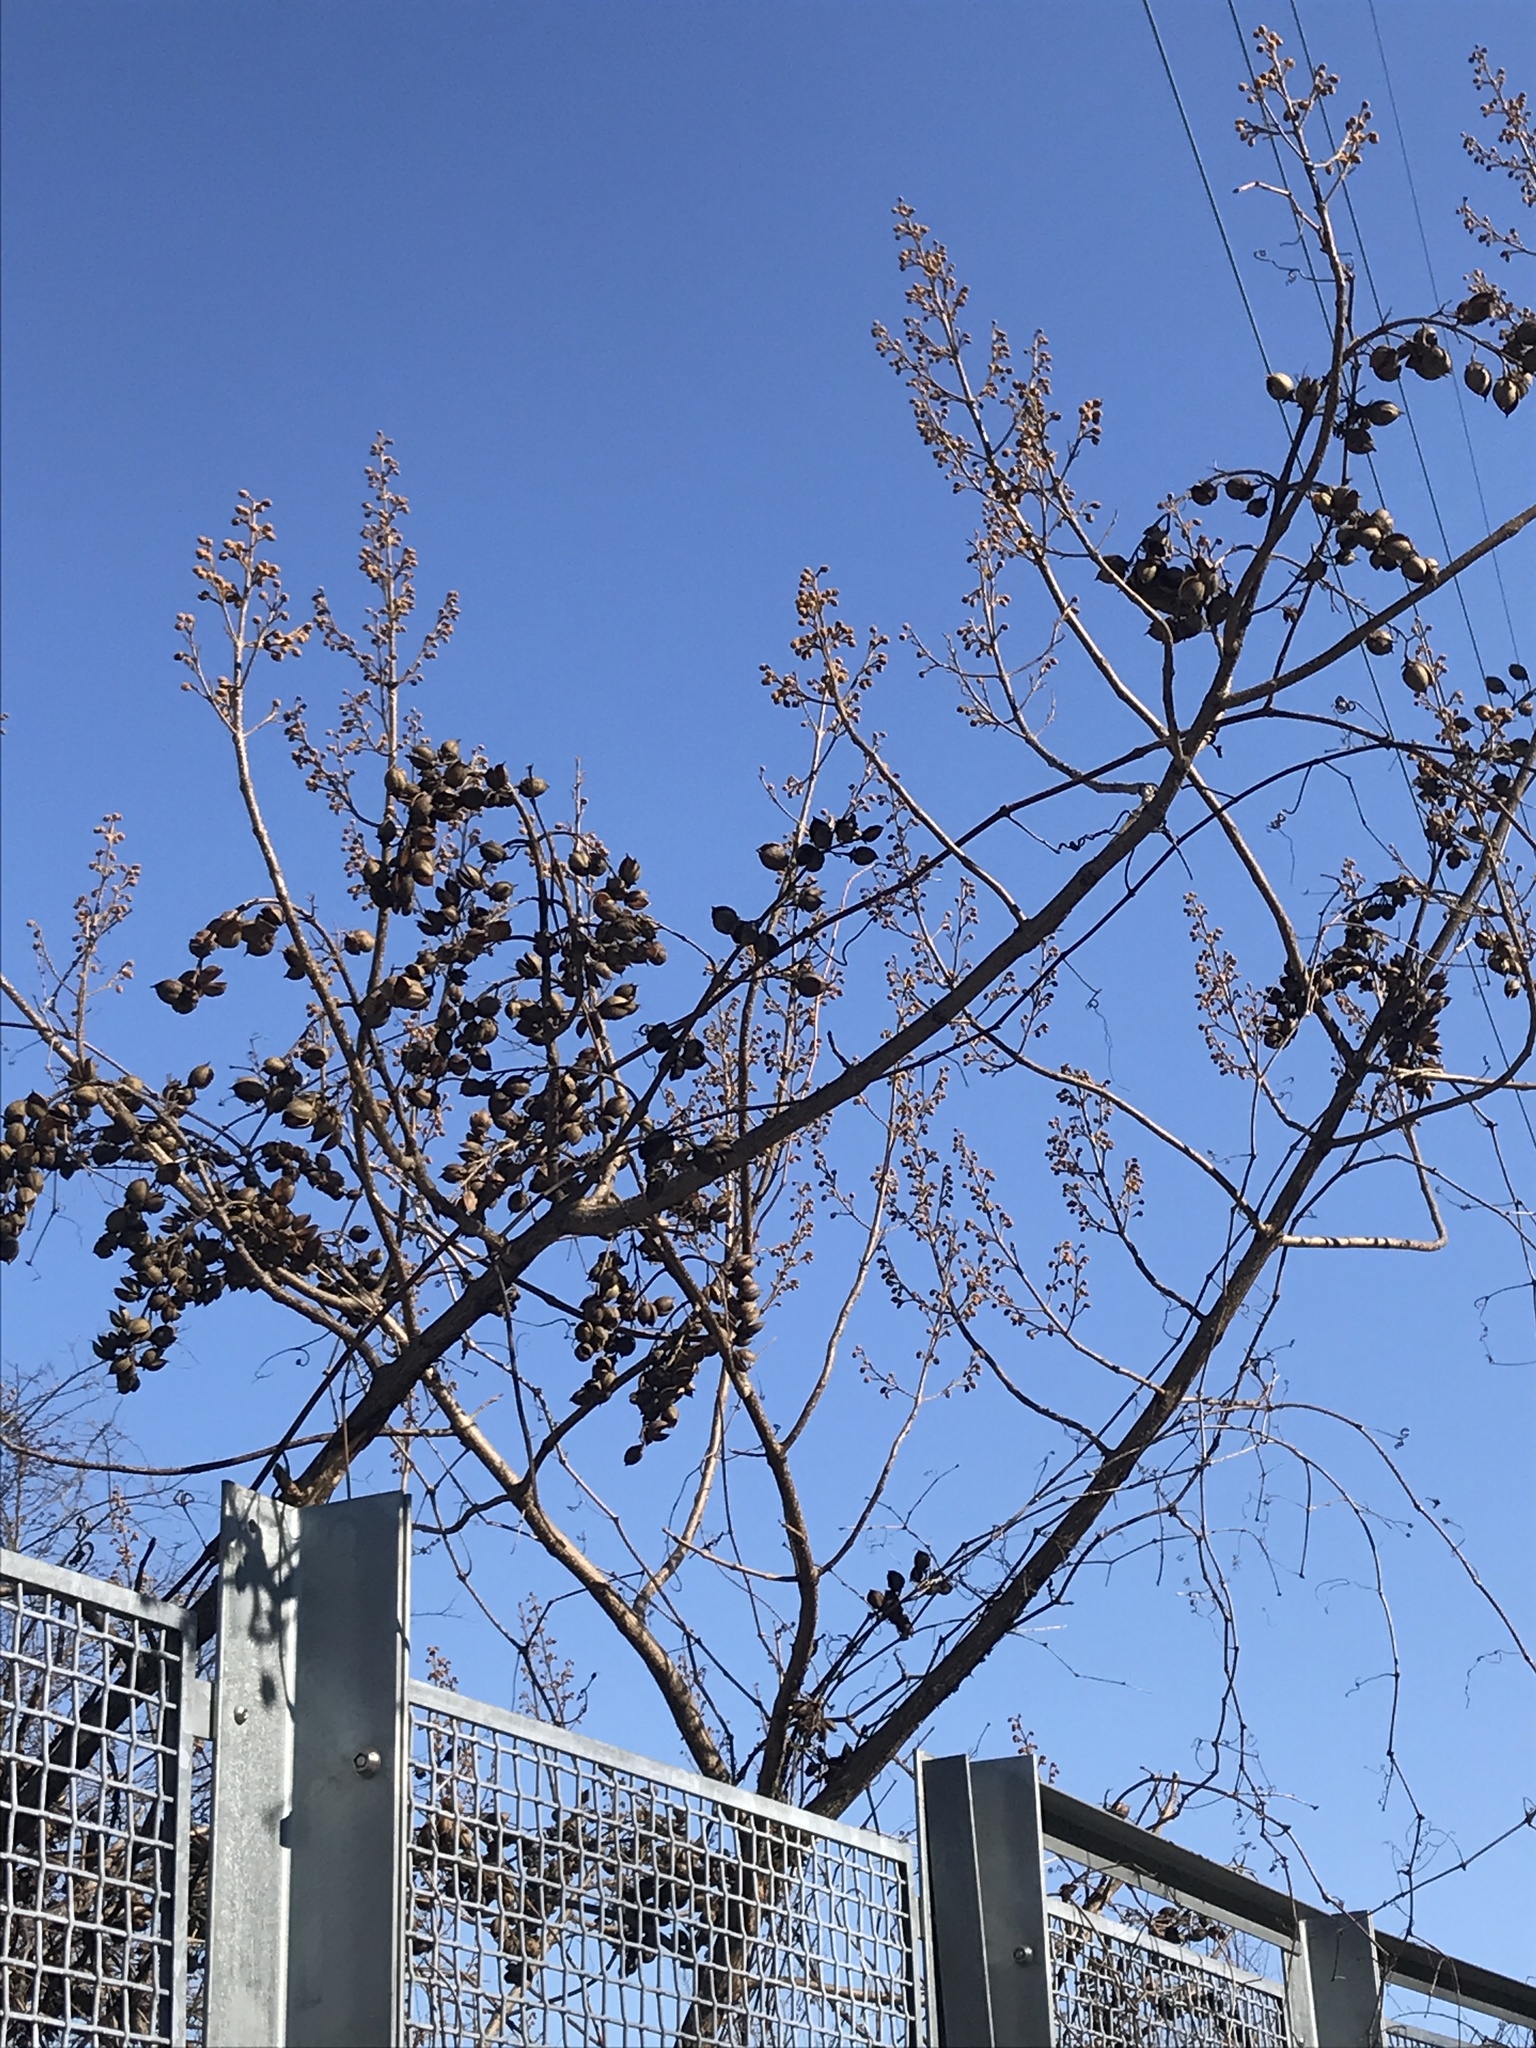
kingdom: Plantae
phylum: Tracheophyta
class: Magnoliopsida
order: Lamiales
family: Paulowniaceae
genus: Paulownia
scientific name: Paulownia tomentosa
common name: Foxglove-tree
